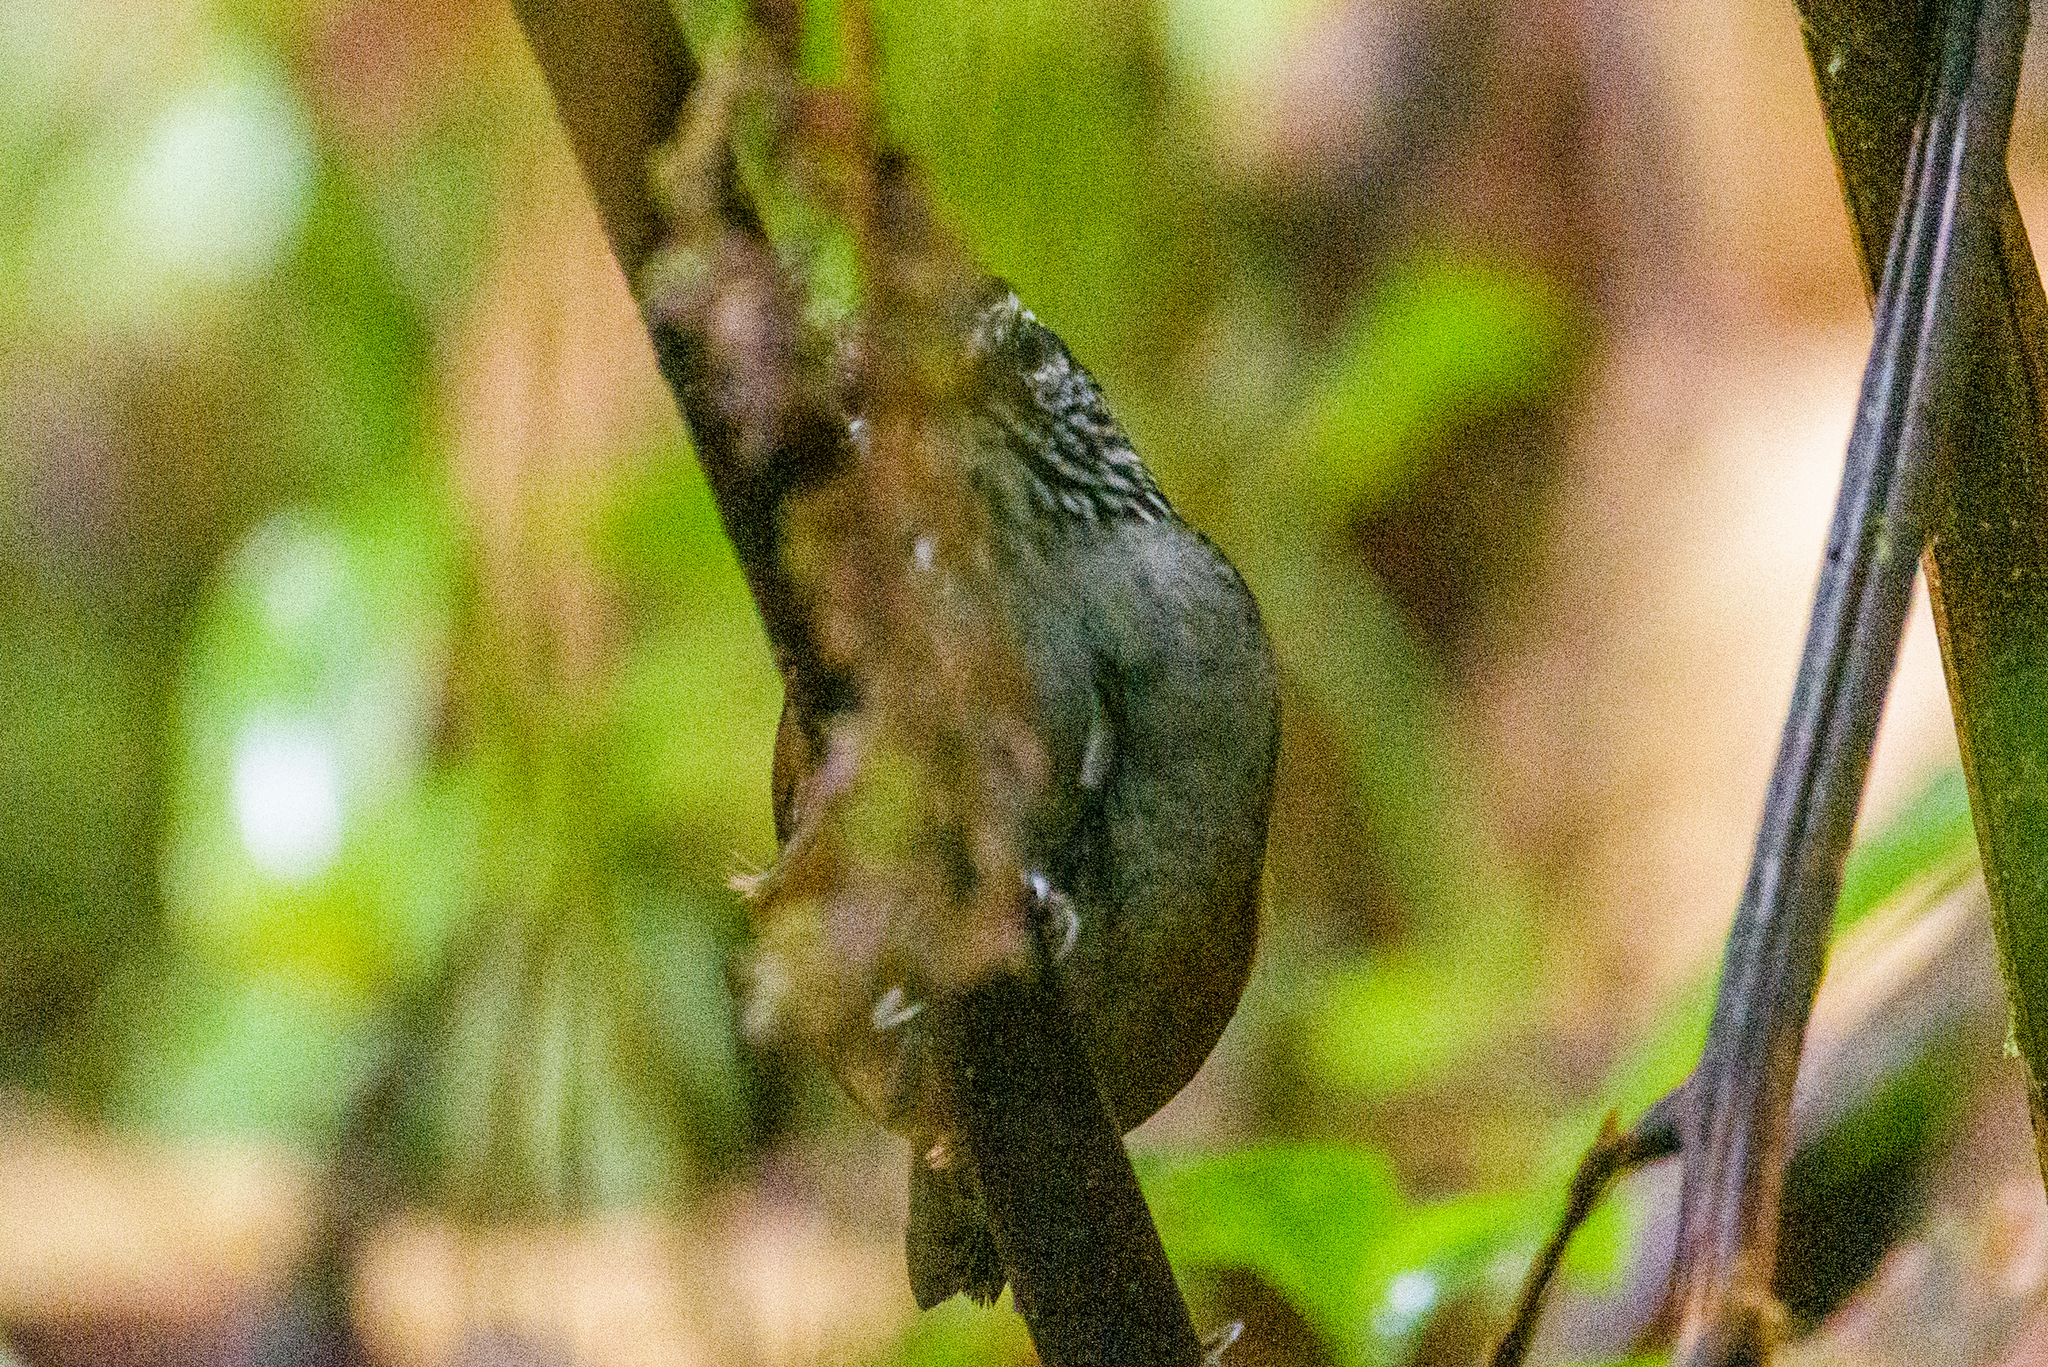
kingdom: Animalia
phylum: Chordata
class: Aves
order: Passeriformes
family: Troglodytidae
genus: Henicorhina
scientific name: Henicorhina leucophrys
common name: Gray-breasted wood-wren
